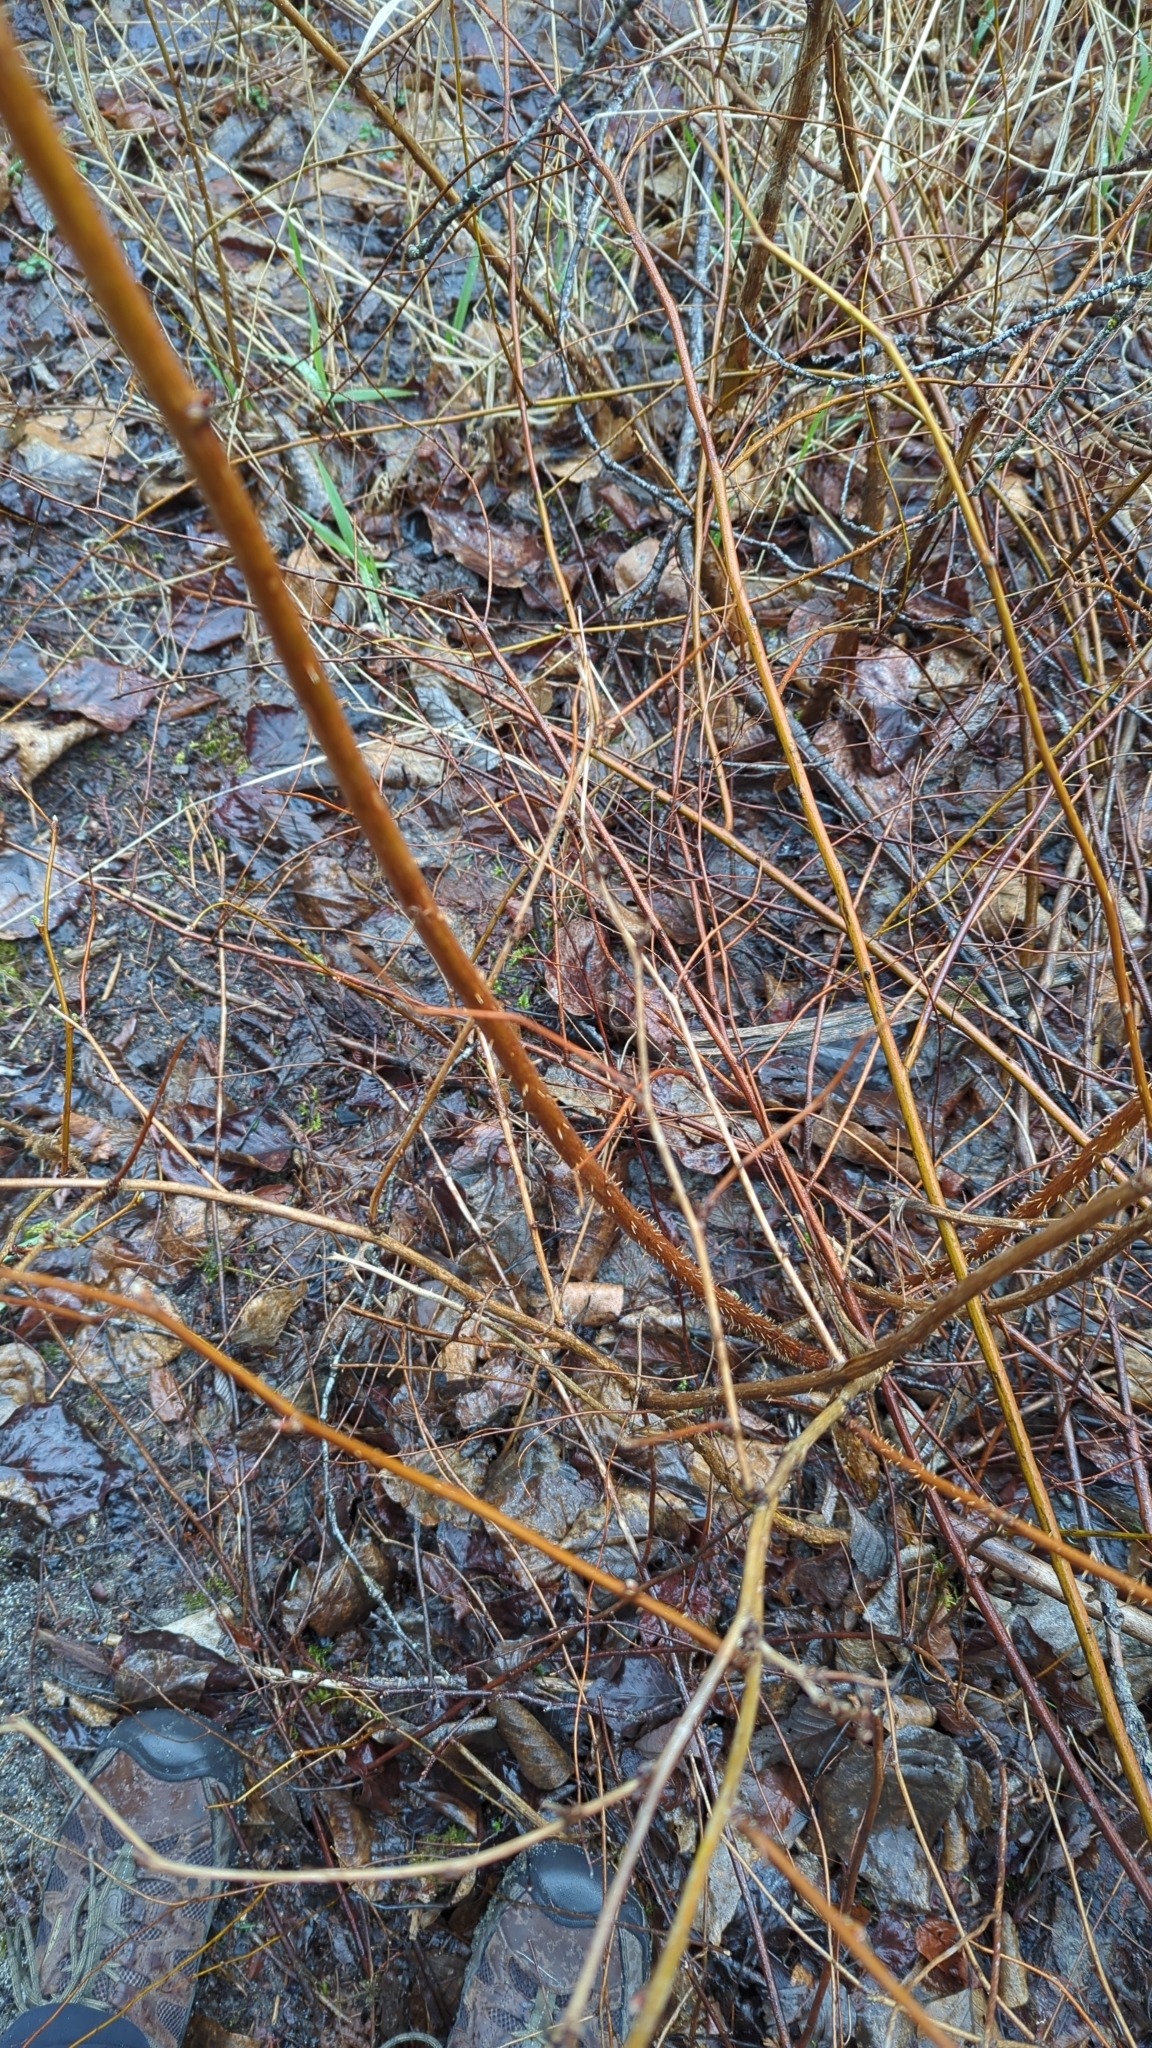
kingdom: Plantae
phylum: Tracheophyta
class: Magnoliopsida
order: Rosales
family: Rosaceae
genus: Rubus
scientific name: Rubus spectabilis
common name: Salmonberry
